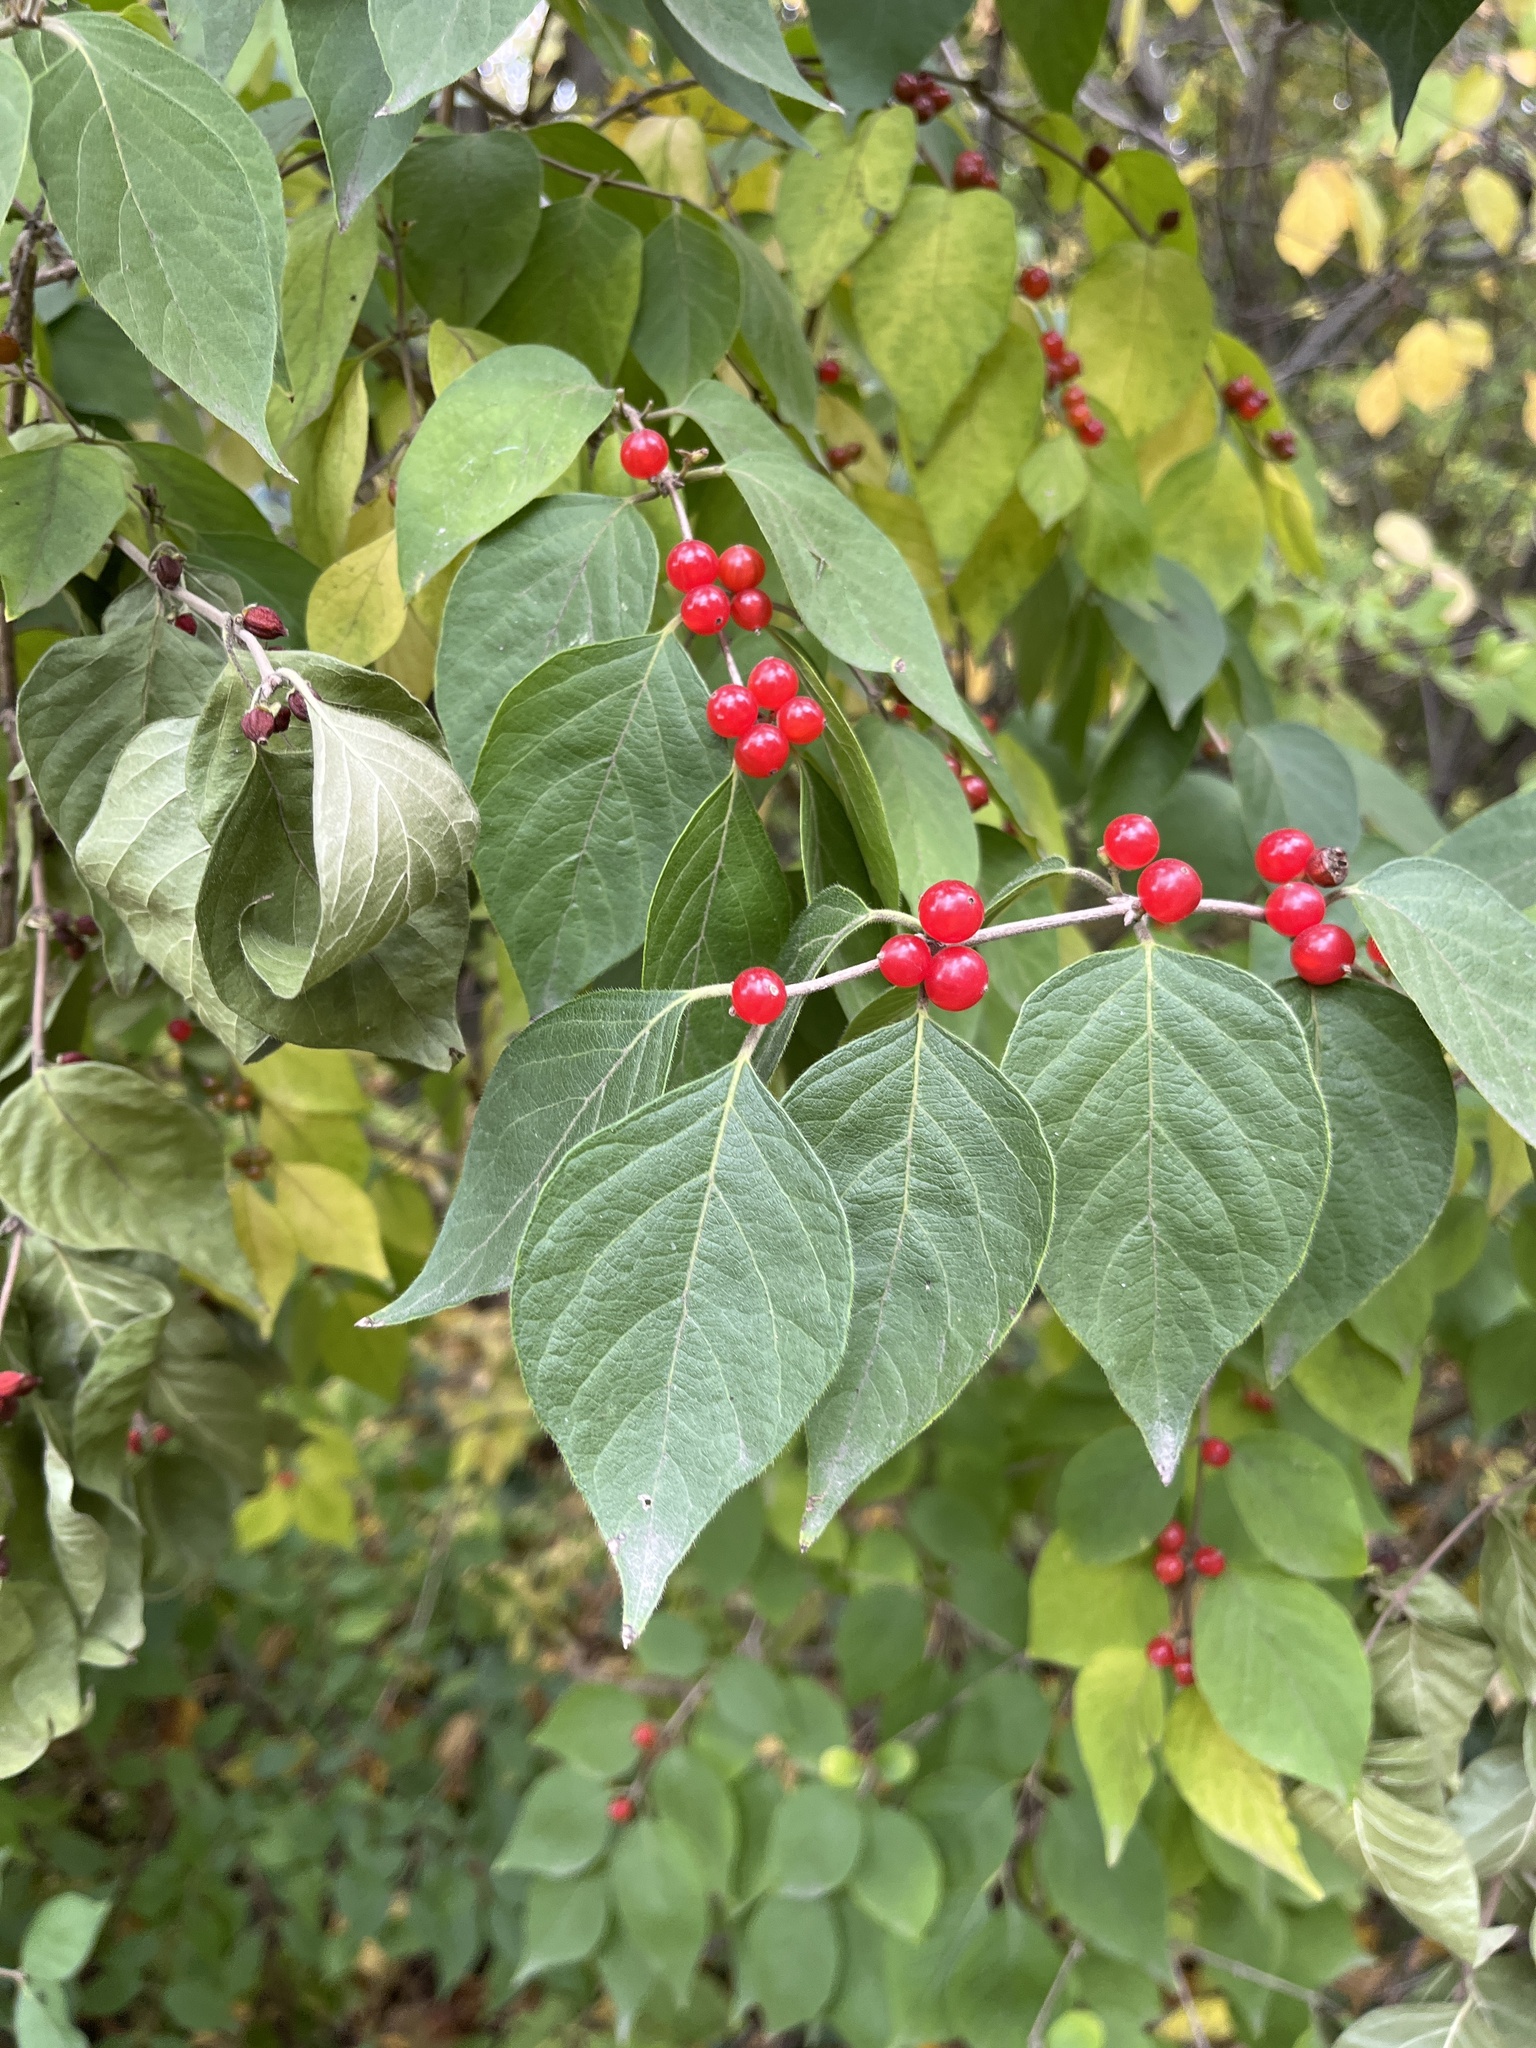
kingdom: Plantae
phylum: Tracheophyta
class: Magnoliopsida
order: Dipsacales
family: Caprifoliaceae
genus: Lonicera
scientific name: Lonicera maackii
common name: Amur honeysuckle
